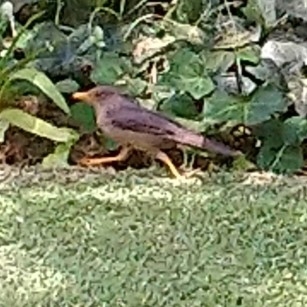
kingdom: Animalia
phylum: Chordata
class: Aves
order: Passeriformes
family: Turdidae
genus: Turdus
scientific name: Turdus smithi
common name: Karoo thrush
